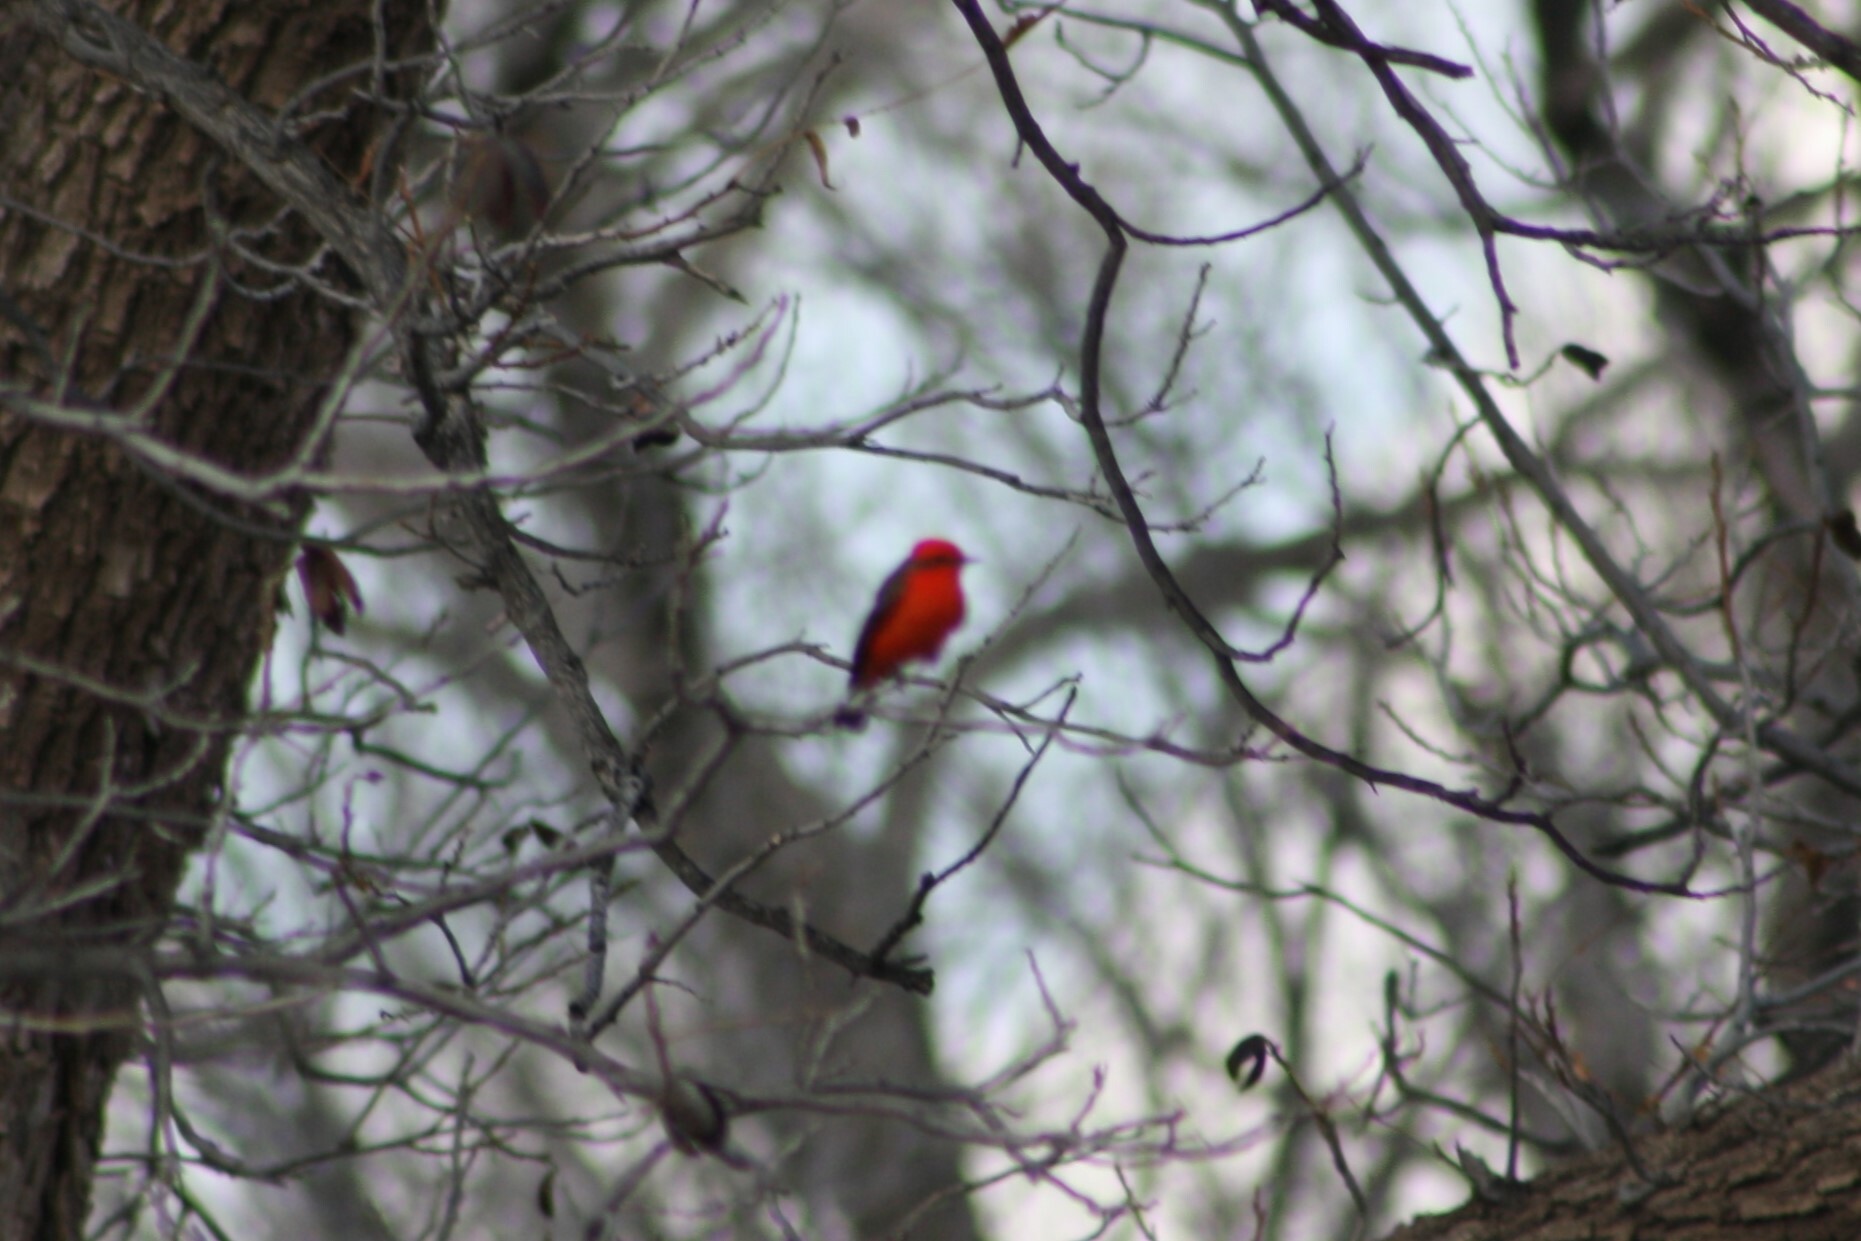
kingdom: Animalia
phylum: Chordata
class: Aves
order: Passeriformes
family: Tyrannidae
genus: Pyrocephalus
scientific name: Pyrocephalus rubinus
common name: Vermilion flycatcher
